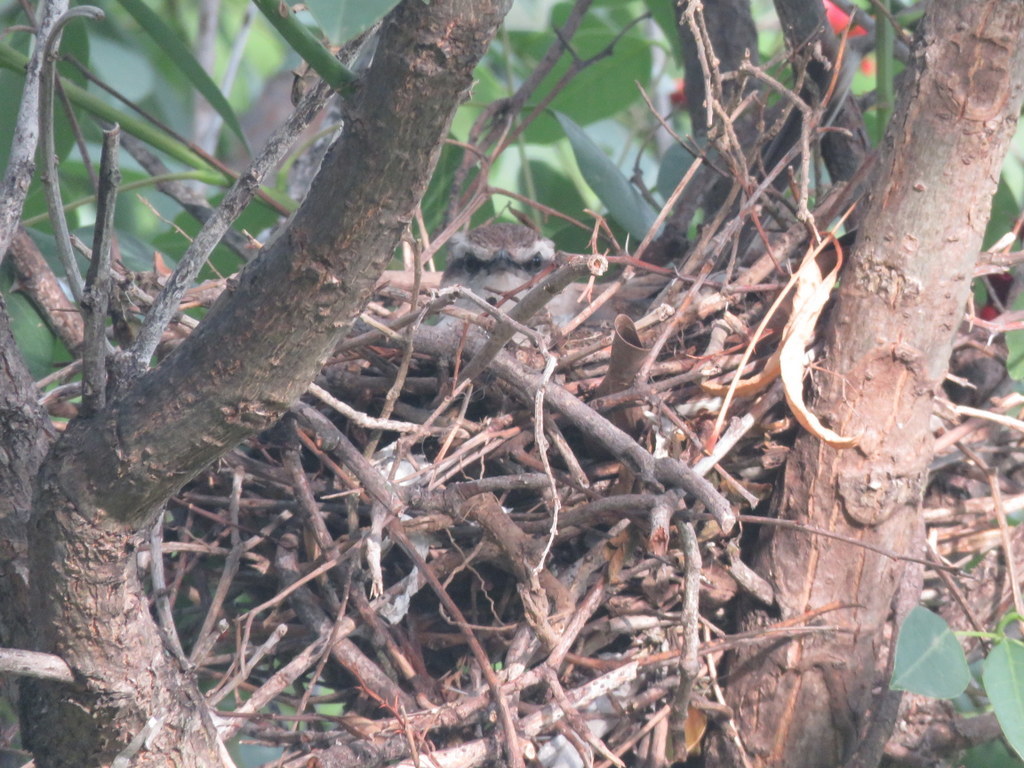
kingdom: Animalia
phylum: Chordata
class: Aves
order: Passeriformes
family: Mimidae
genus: Mimus
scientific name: Mimus saturninus
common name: Chalk-browed mockingbird
